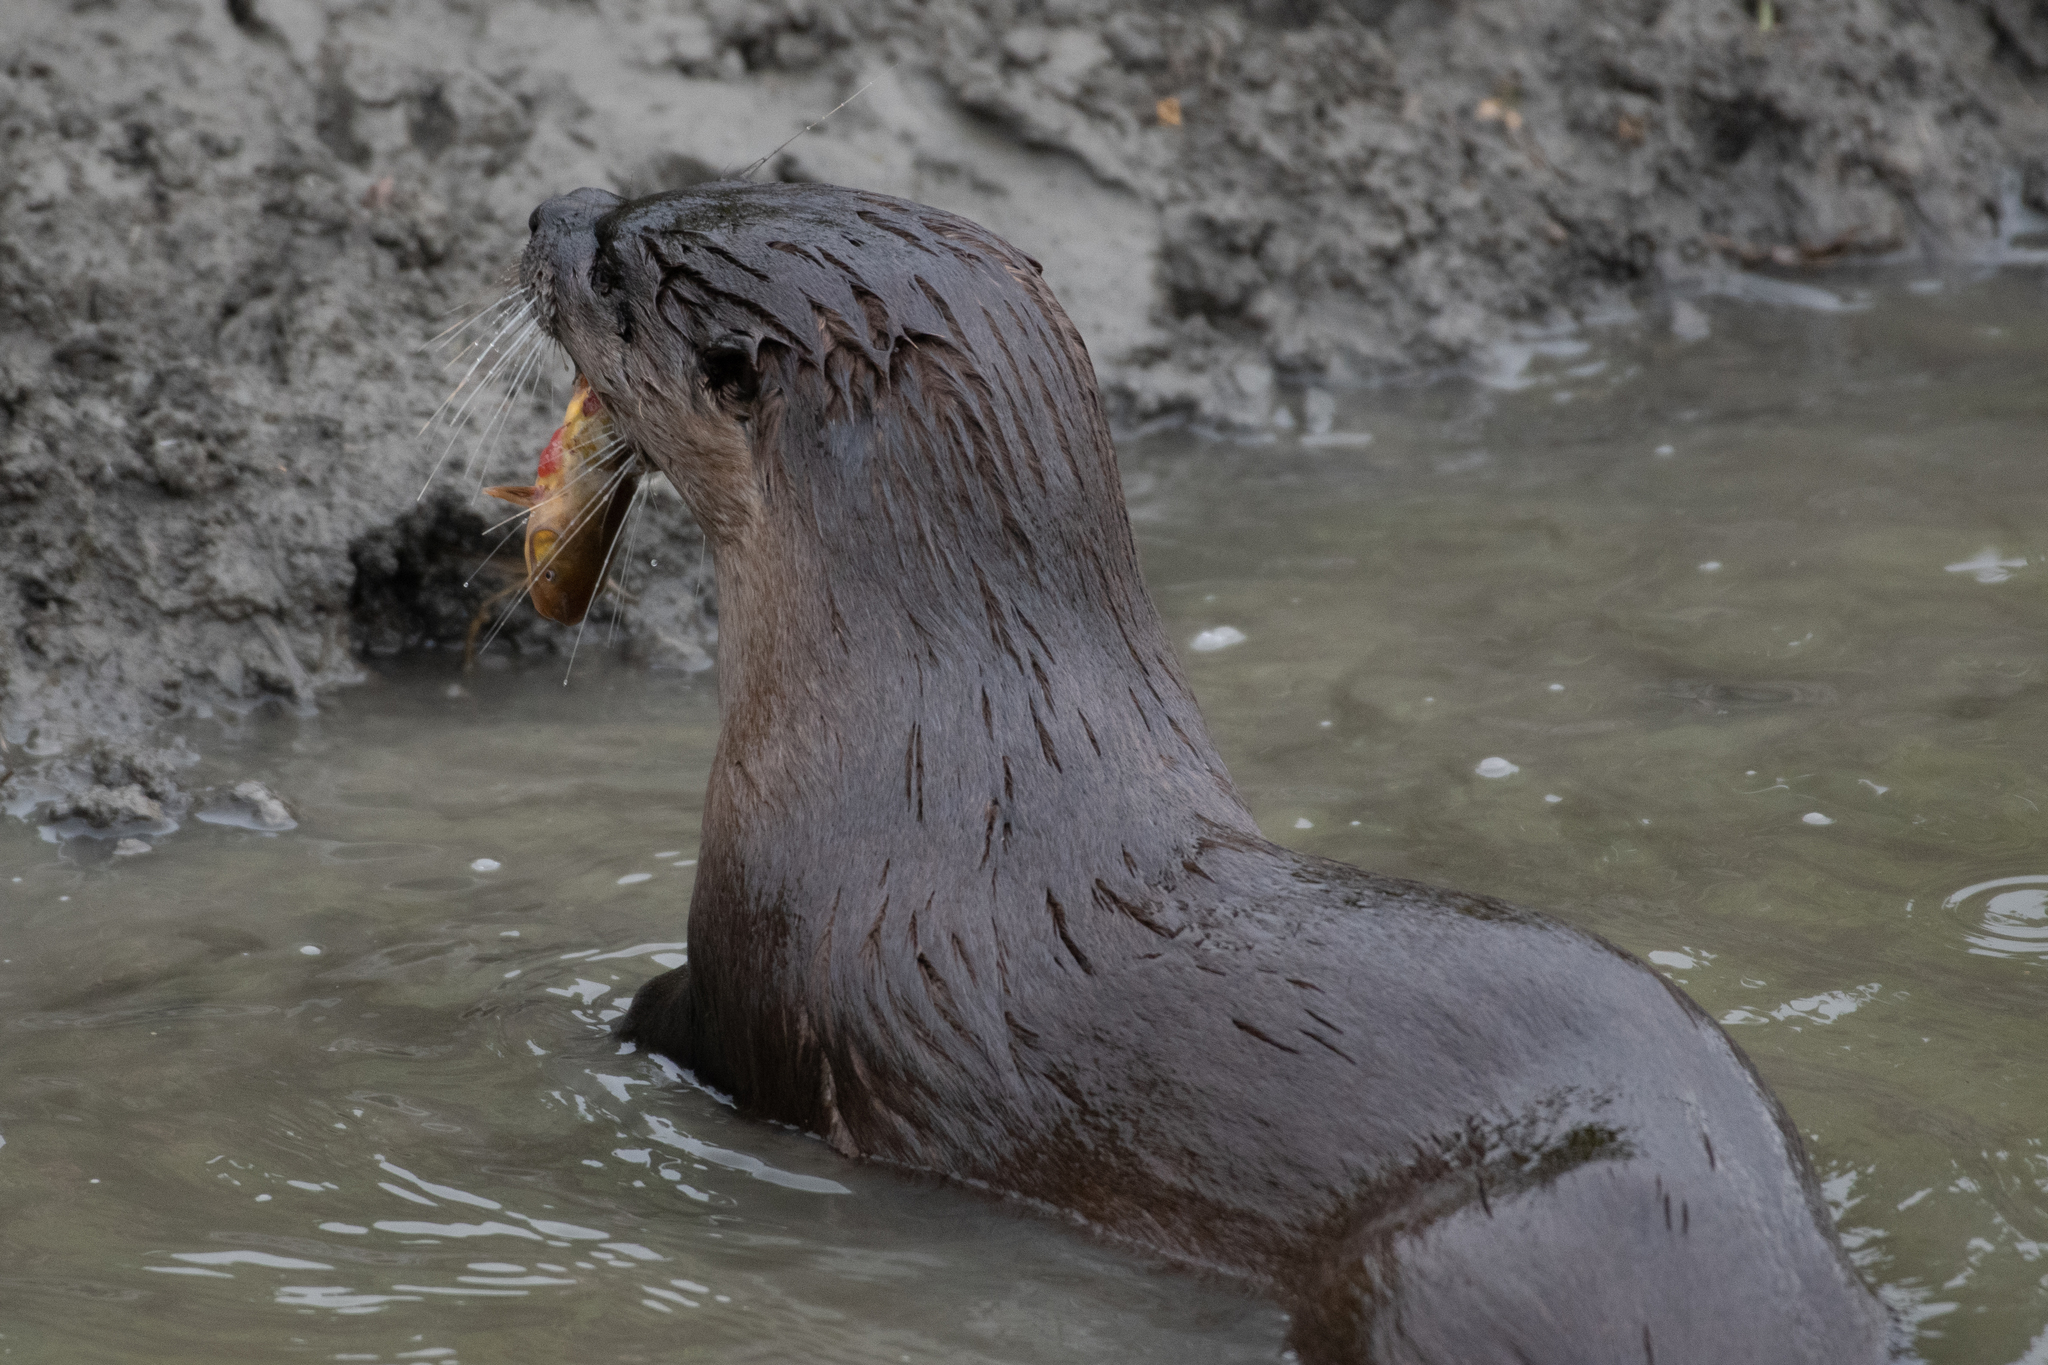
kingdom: Animalia
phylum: Chordata
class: Mammalia
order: Carnivora
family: Mustelidae
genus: Lontra
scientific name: Lontra canadensis
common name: North american river otter
